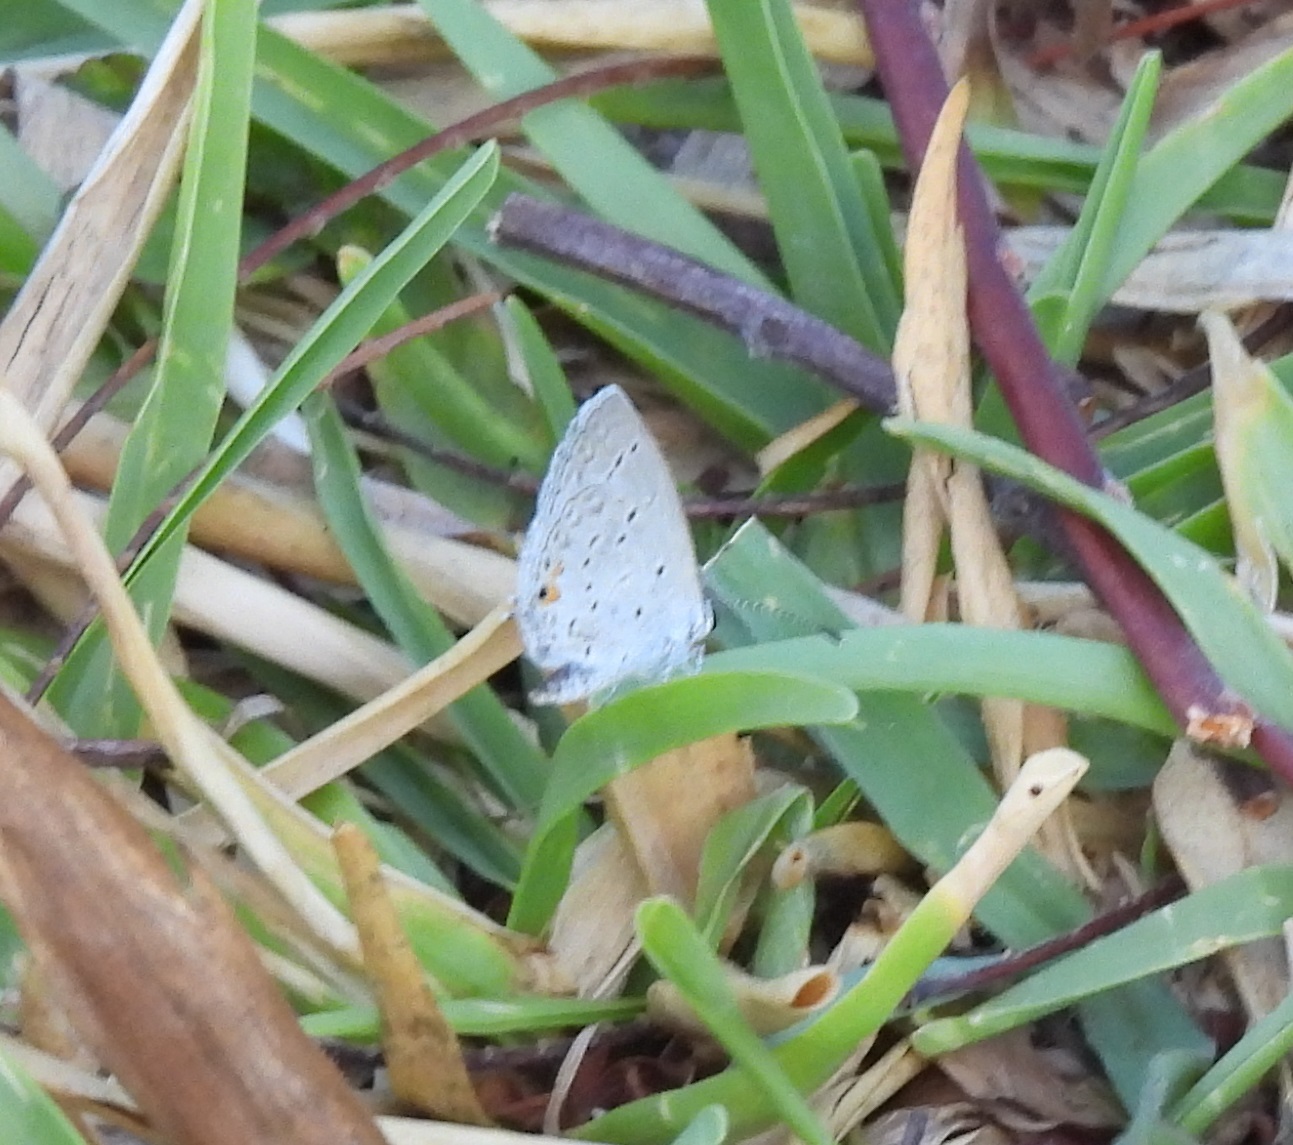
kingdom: Animalia
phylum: Arthropoda
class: Insecta
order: Lepidoptera
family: Lycaenidae
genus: Elkalyce
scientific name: Elkalyce texana
